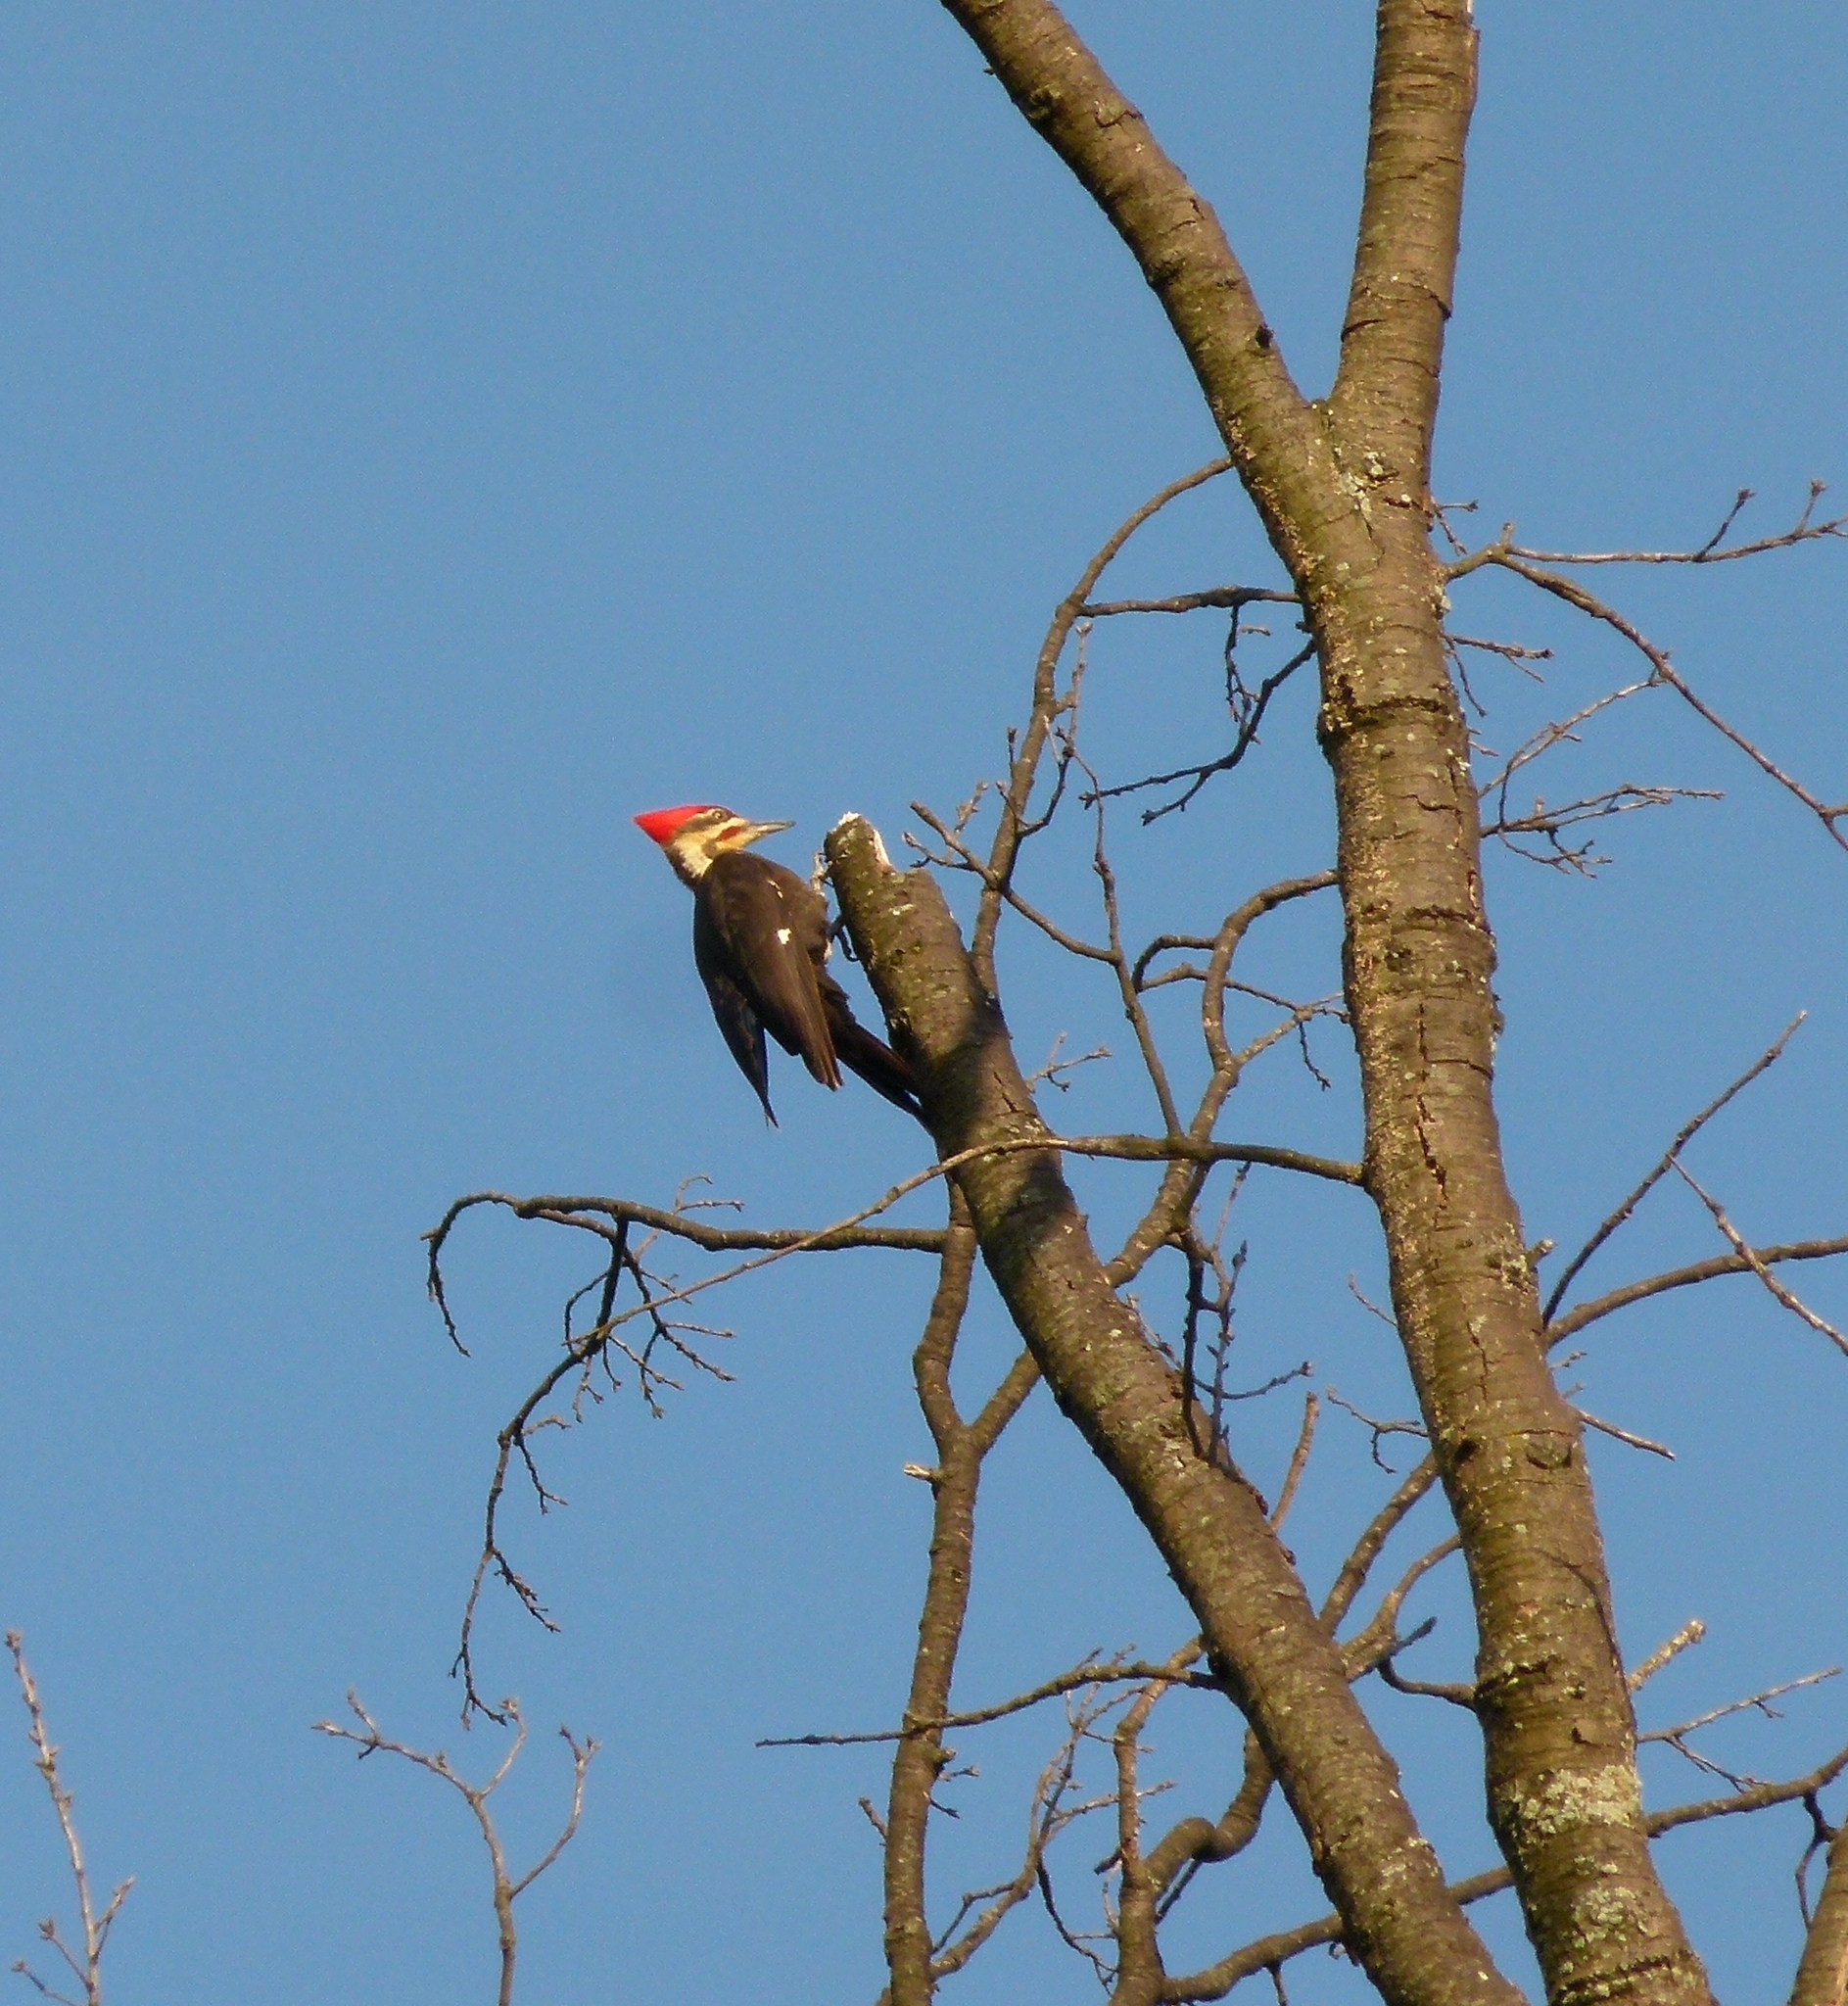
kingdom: Animalia
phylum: Chordata
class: Aves
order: Piciformes
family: Picidae
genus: Dryocopus
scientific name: Dryocopus pileatus
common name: Pileated woodpecker
